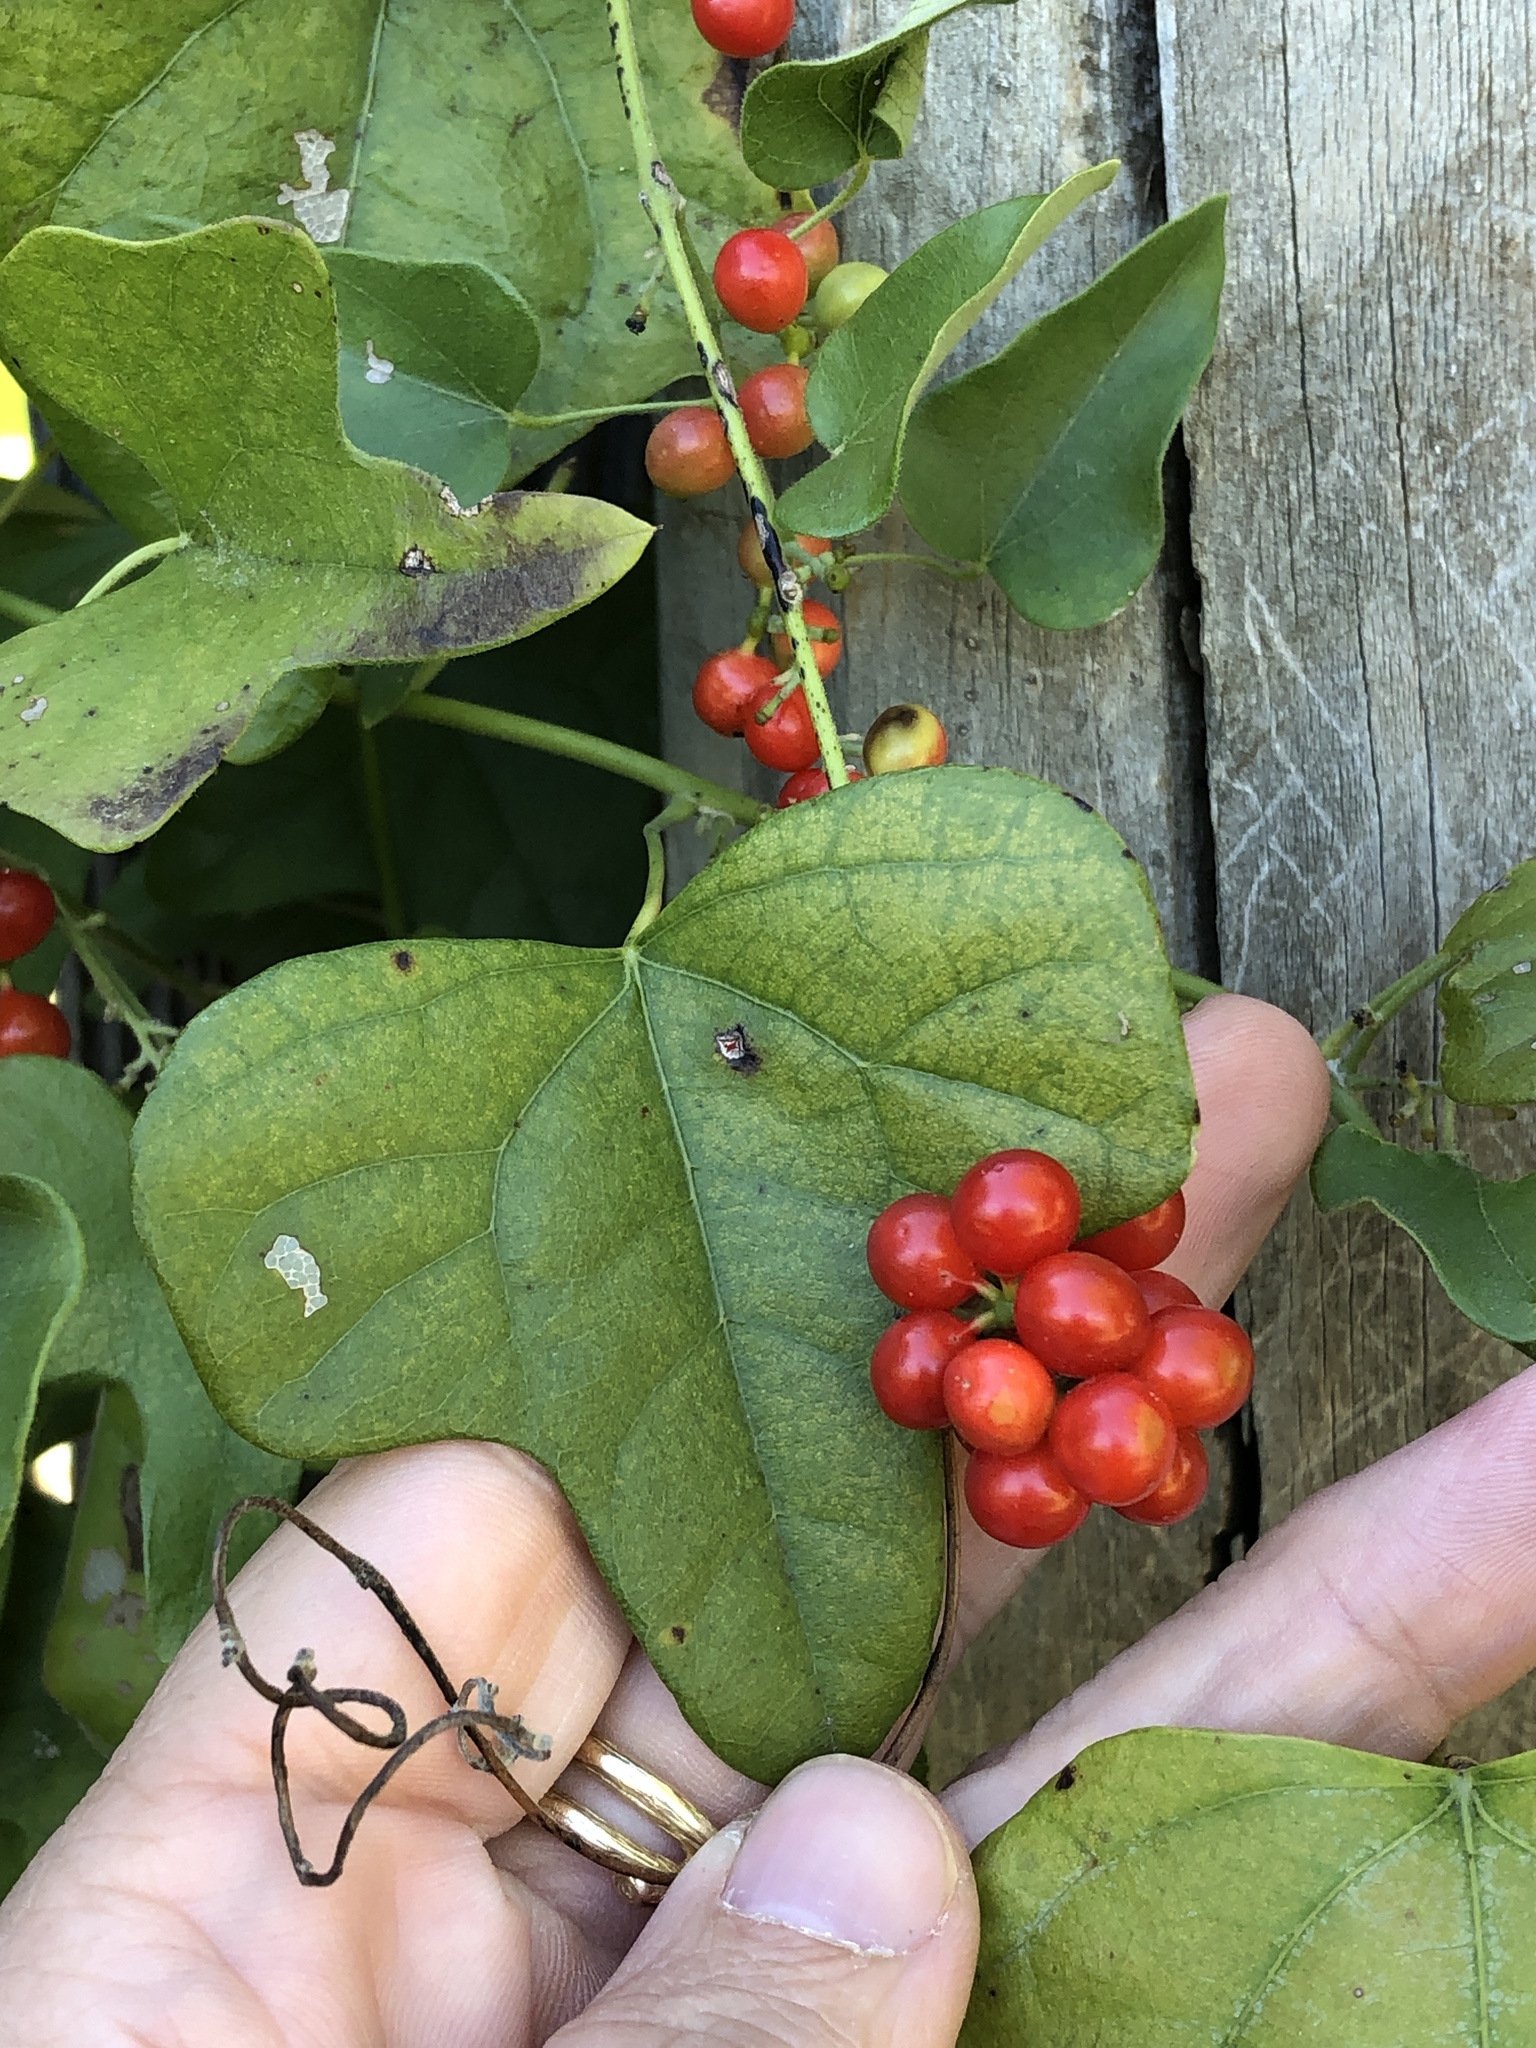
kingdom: Plantae
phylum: Tracheophyta
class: Magnoliopsida
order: Ranunculales
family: Menispermaceae
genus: Cocculus
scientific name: Cocculus carolinus
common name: Carolina moonseed
